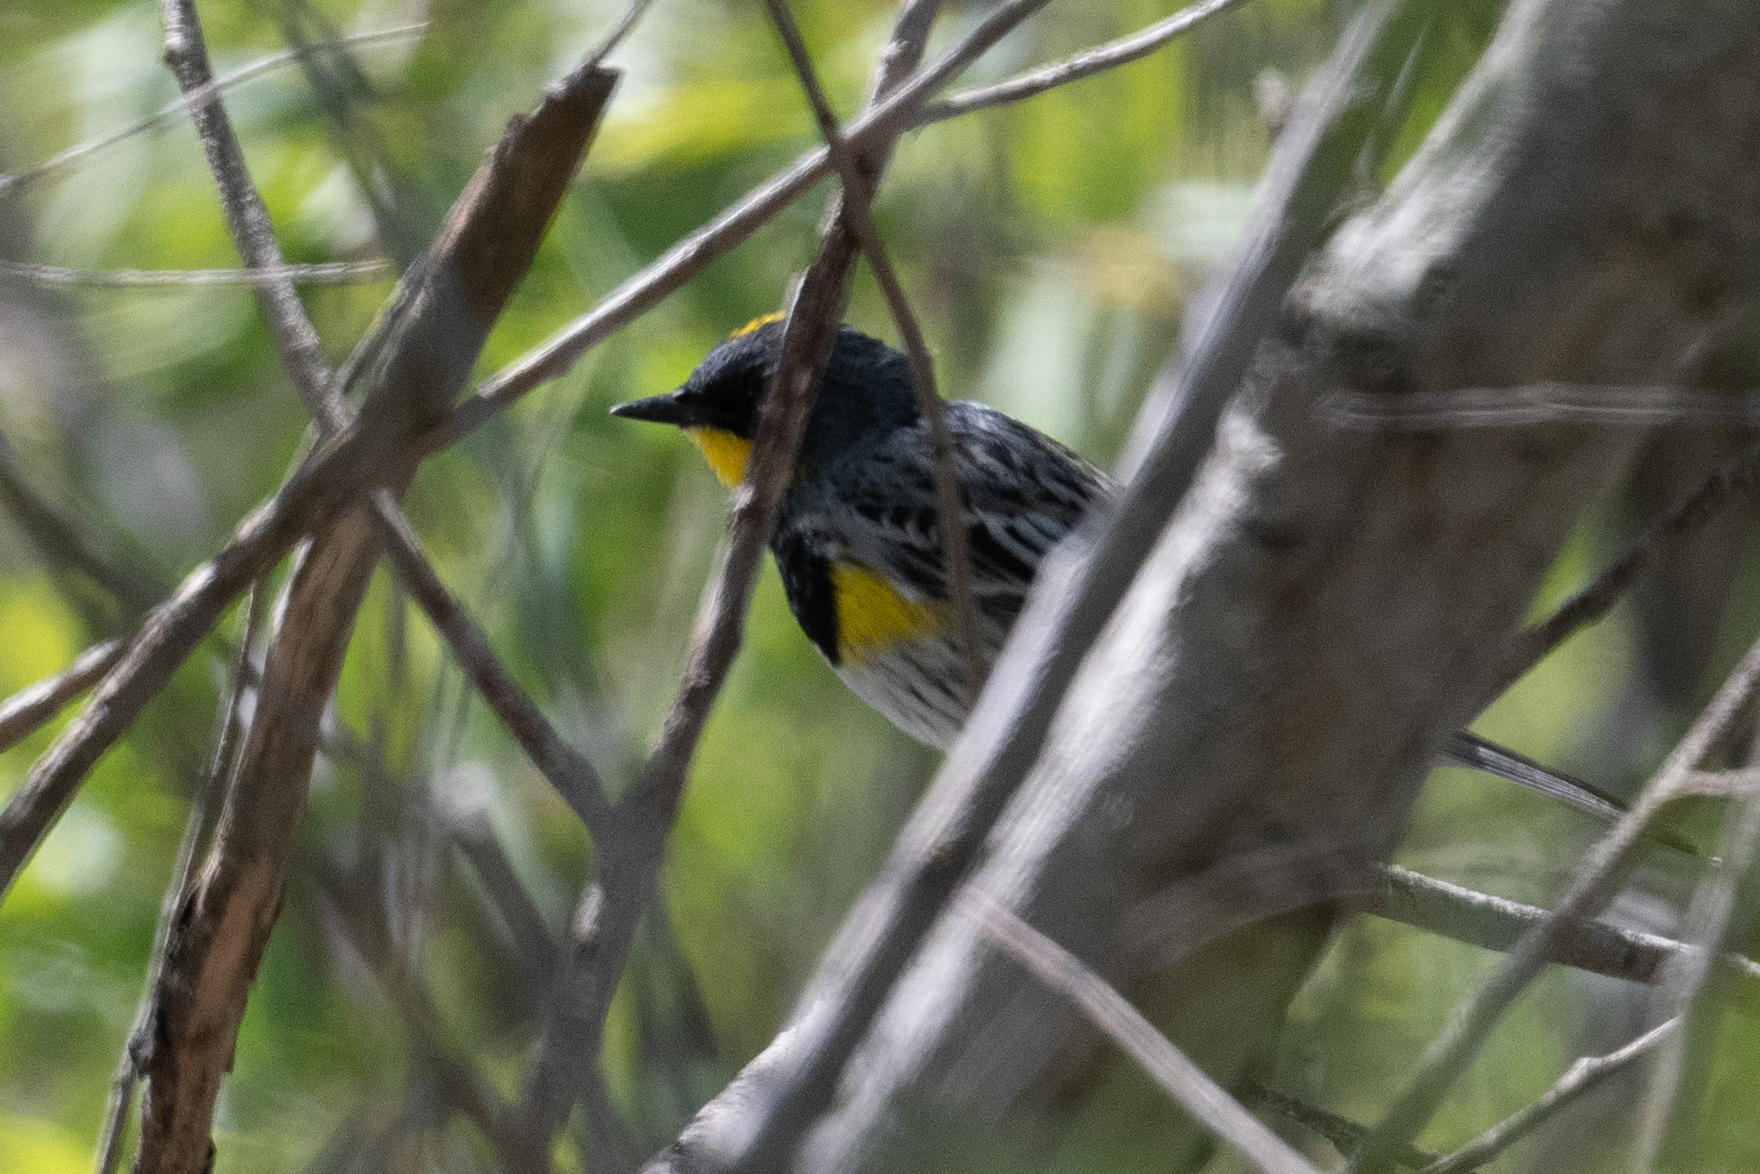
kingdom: Animalia
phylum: Chordata
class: Aves
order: Passeriformes
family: Parulidae
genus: Setophaga
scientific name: Setophaga coronata
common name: Myrtle warbler
